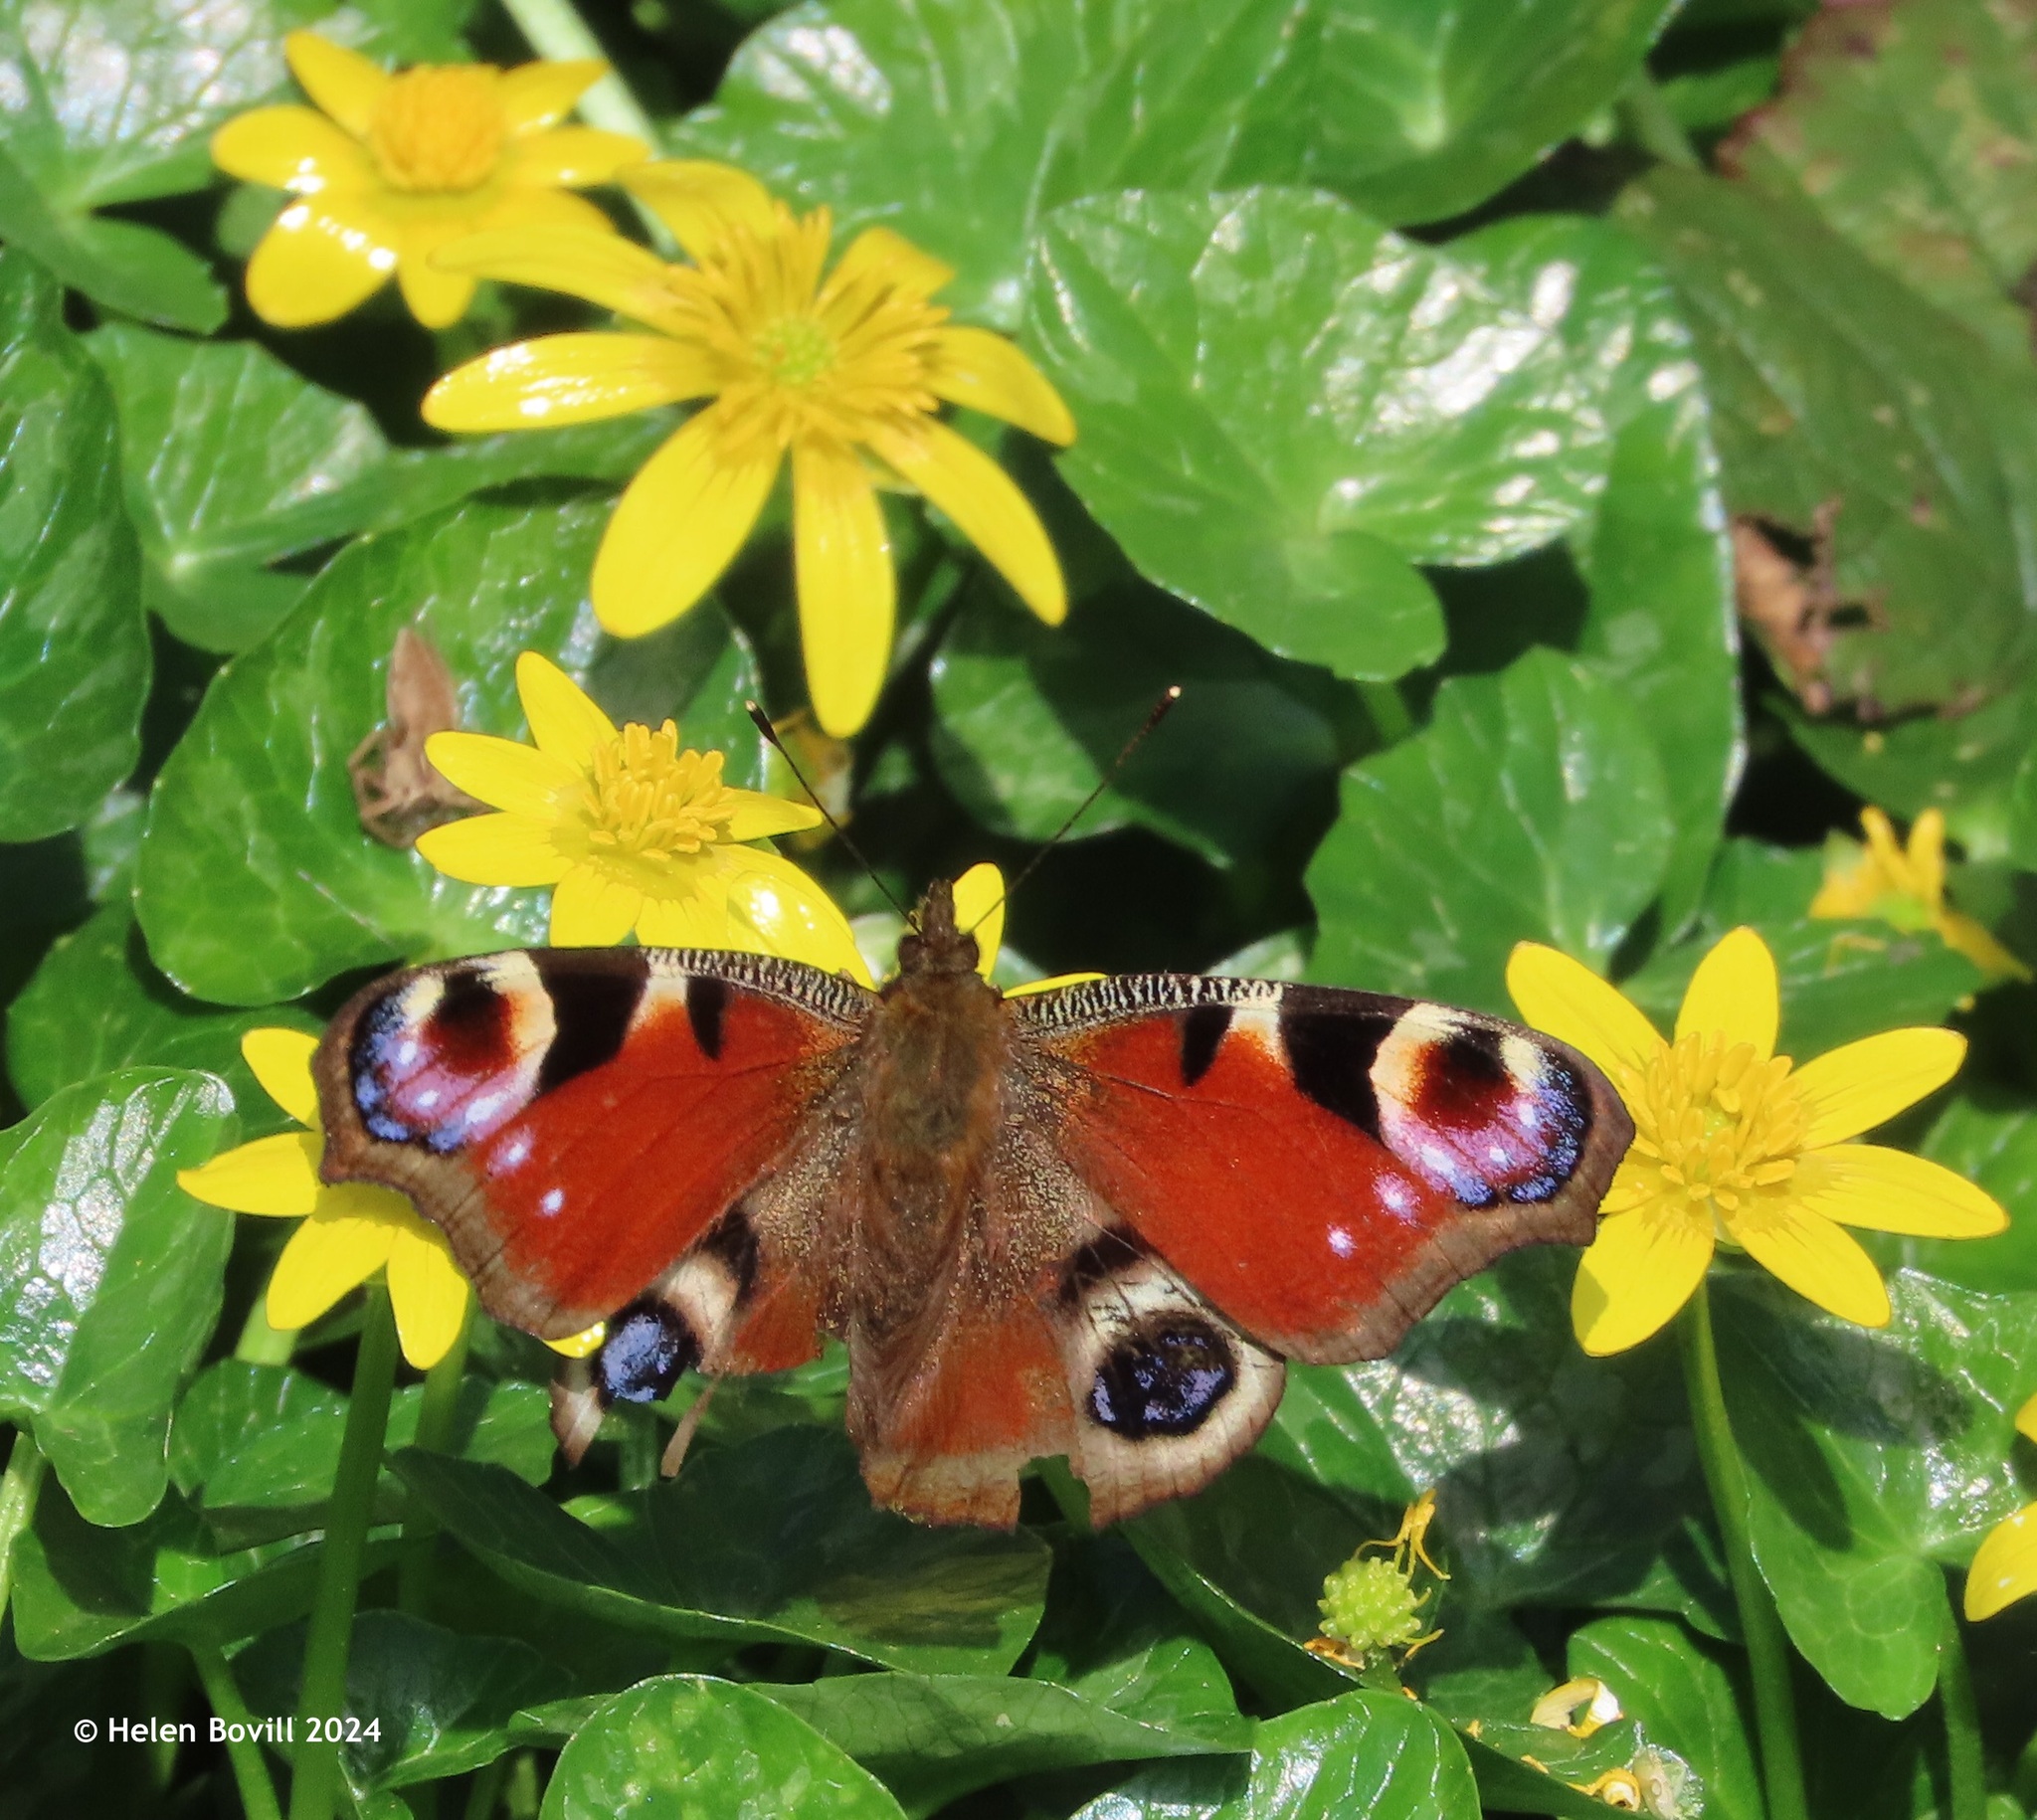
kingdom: Animalia
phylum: Arthropoda
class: Insecta
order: Lepidoptera
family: Nymphalidae
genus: Aglais
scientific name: Aglais io
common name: Peacock
